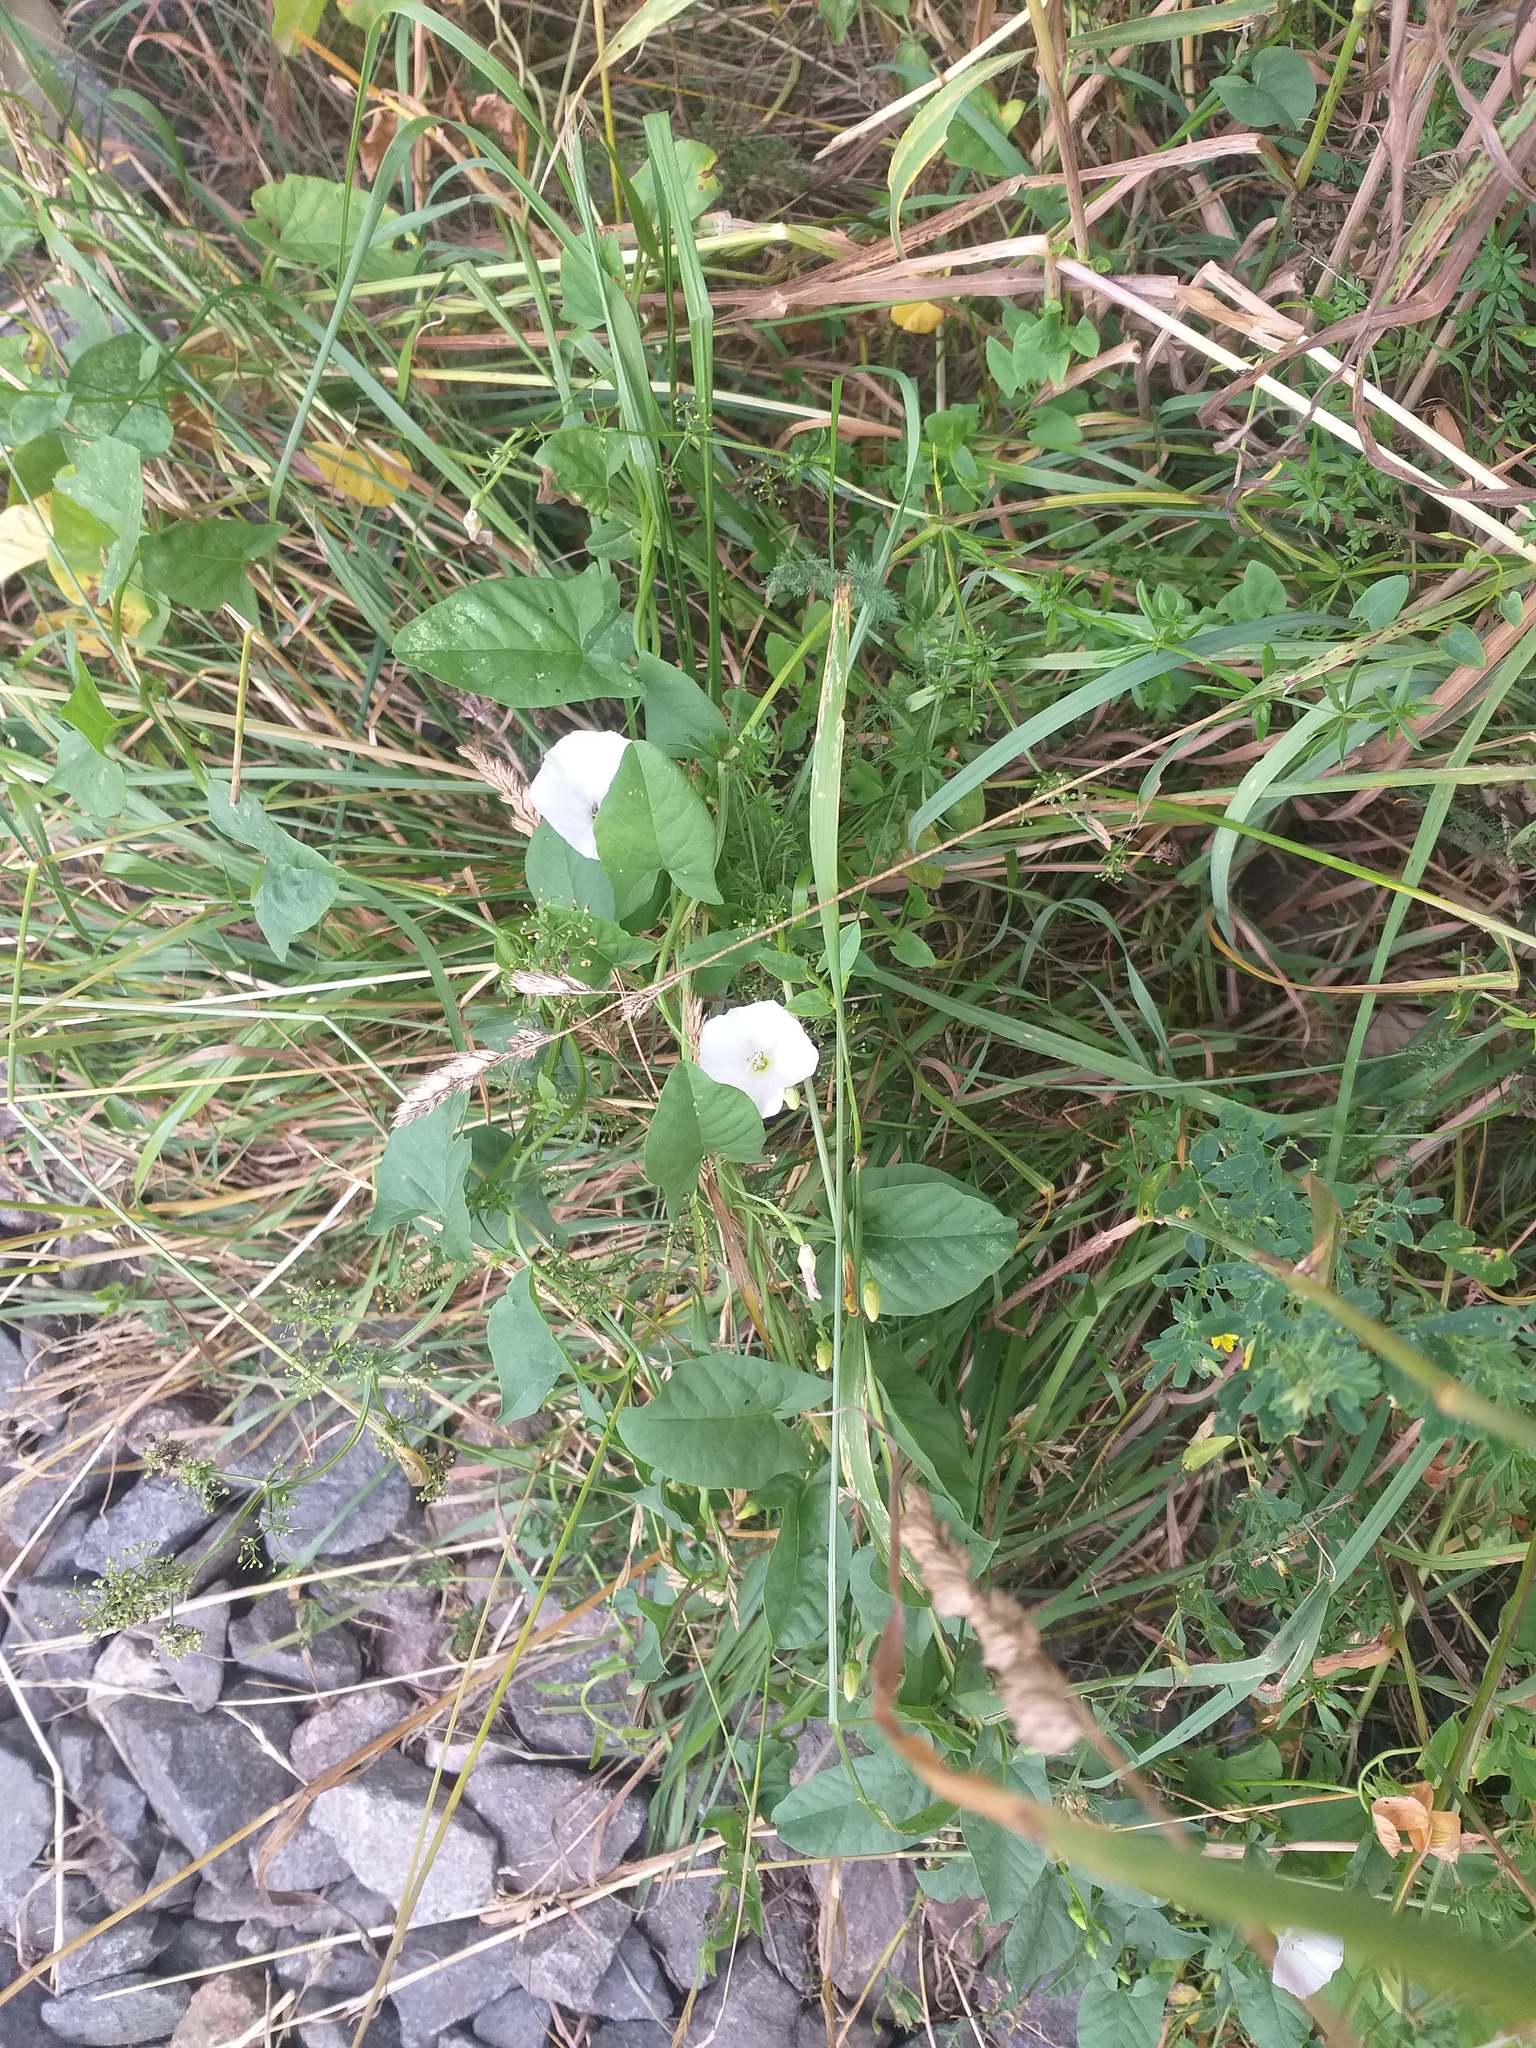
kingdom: Plantae
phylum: Tracheophyta
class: Magnoliopsida
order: Solanales
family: Convolvulaceae
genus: Convolvulus
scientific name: Convolvulus arvensis
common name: Field bindweed
